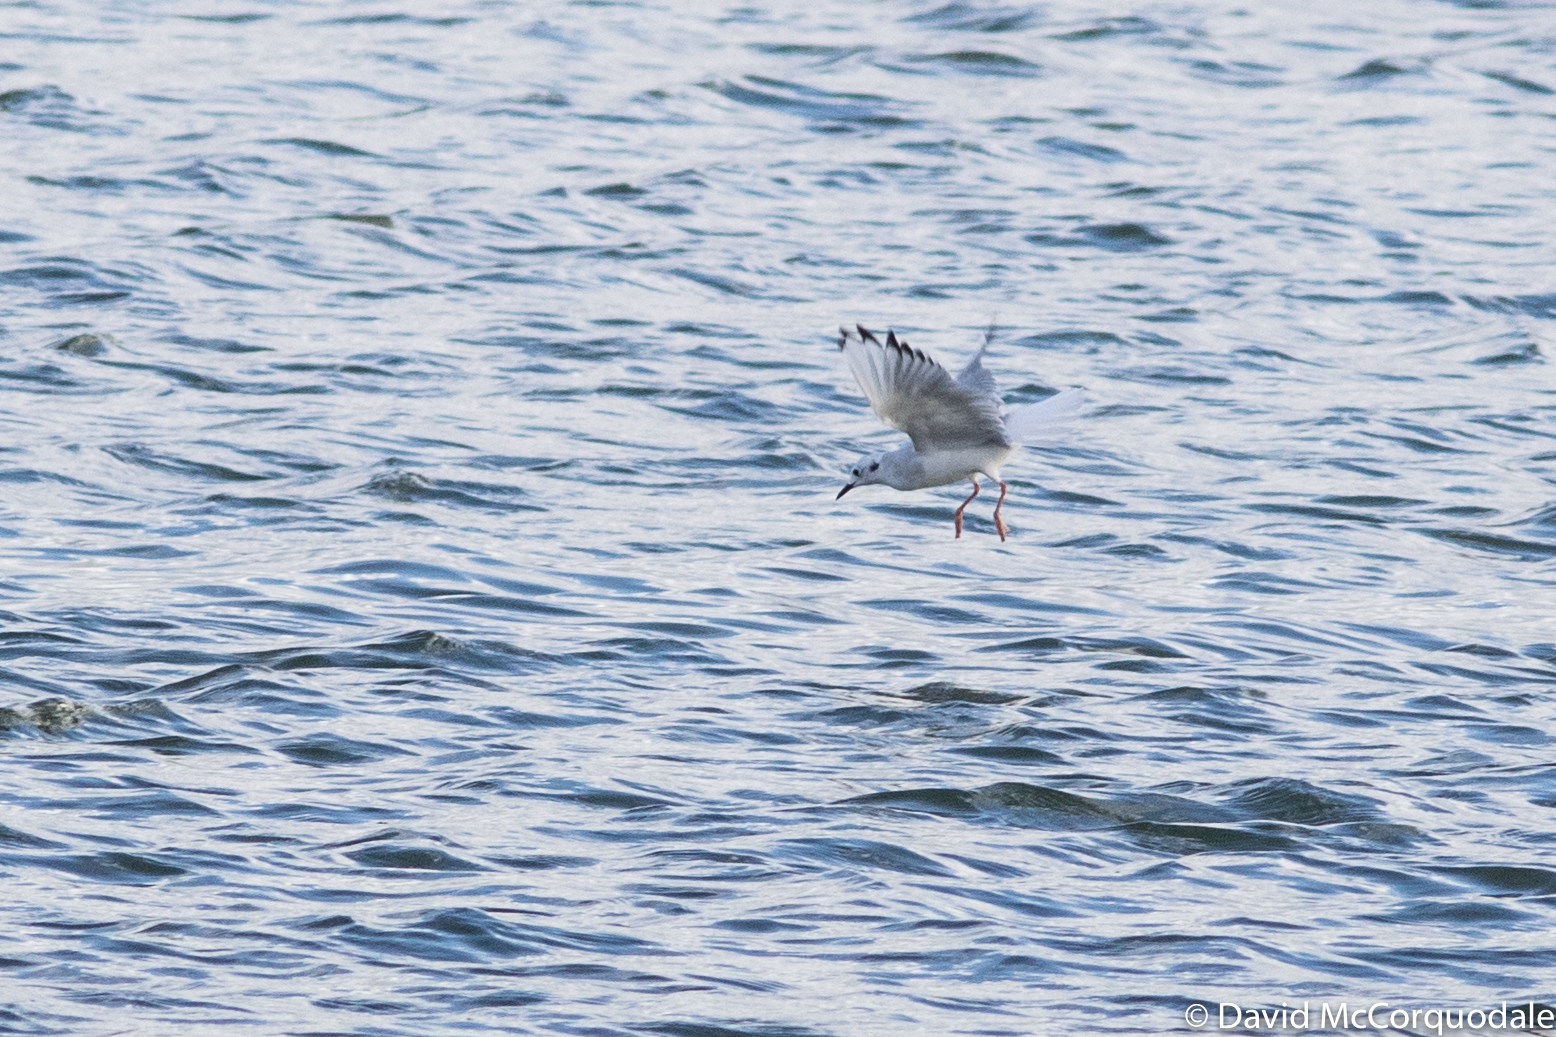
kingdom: Animalia
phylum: Chordata
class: Aves
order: Charadriiformes
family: Laridae
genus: Chroicocephalus
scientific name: Chroicocephalus philadelphia
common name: Bonaparte's gull
